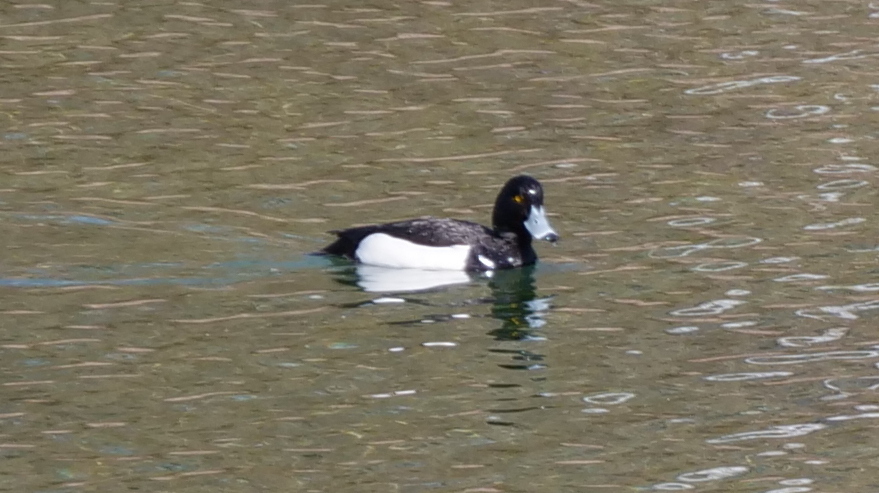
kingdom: Animalia
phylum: Chordata
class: Aves
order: Anseriformes
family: Anatidae
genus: Aythya
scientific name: Aythya fuligula
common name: Tufted duck
